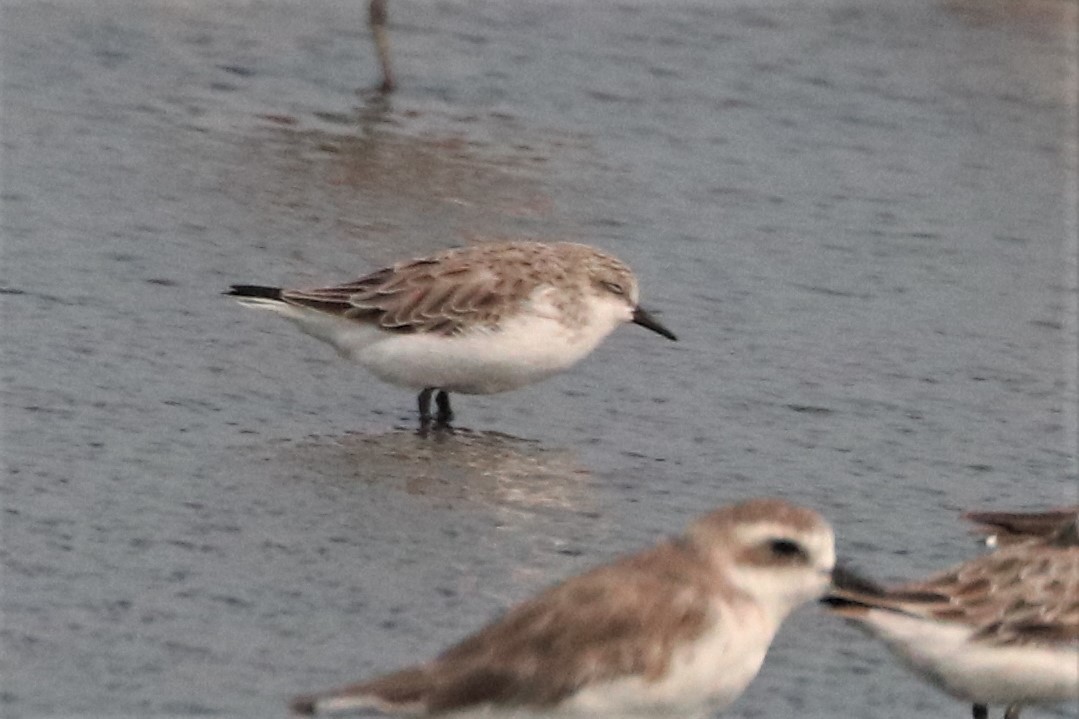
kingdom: Animalia
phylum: Chordata
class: Aves
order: Charadriiformes
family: Scolopacidae
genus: Calidris
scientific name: Calidris ruficollis
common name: Red-necked stint
